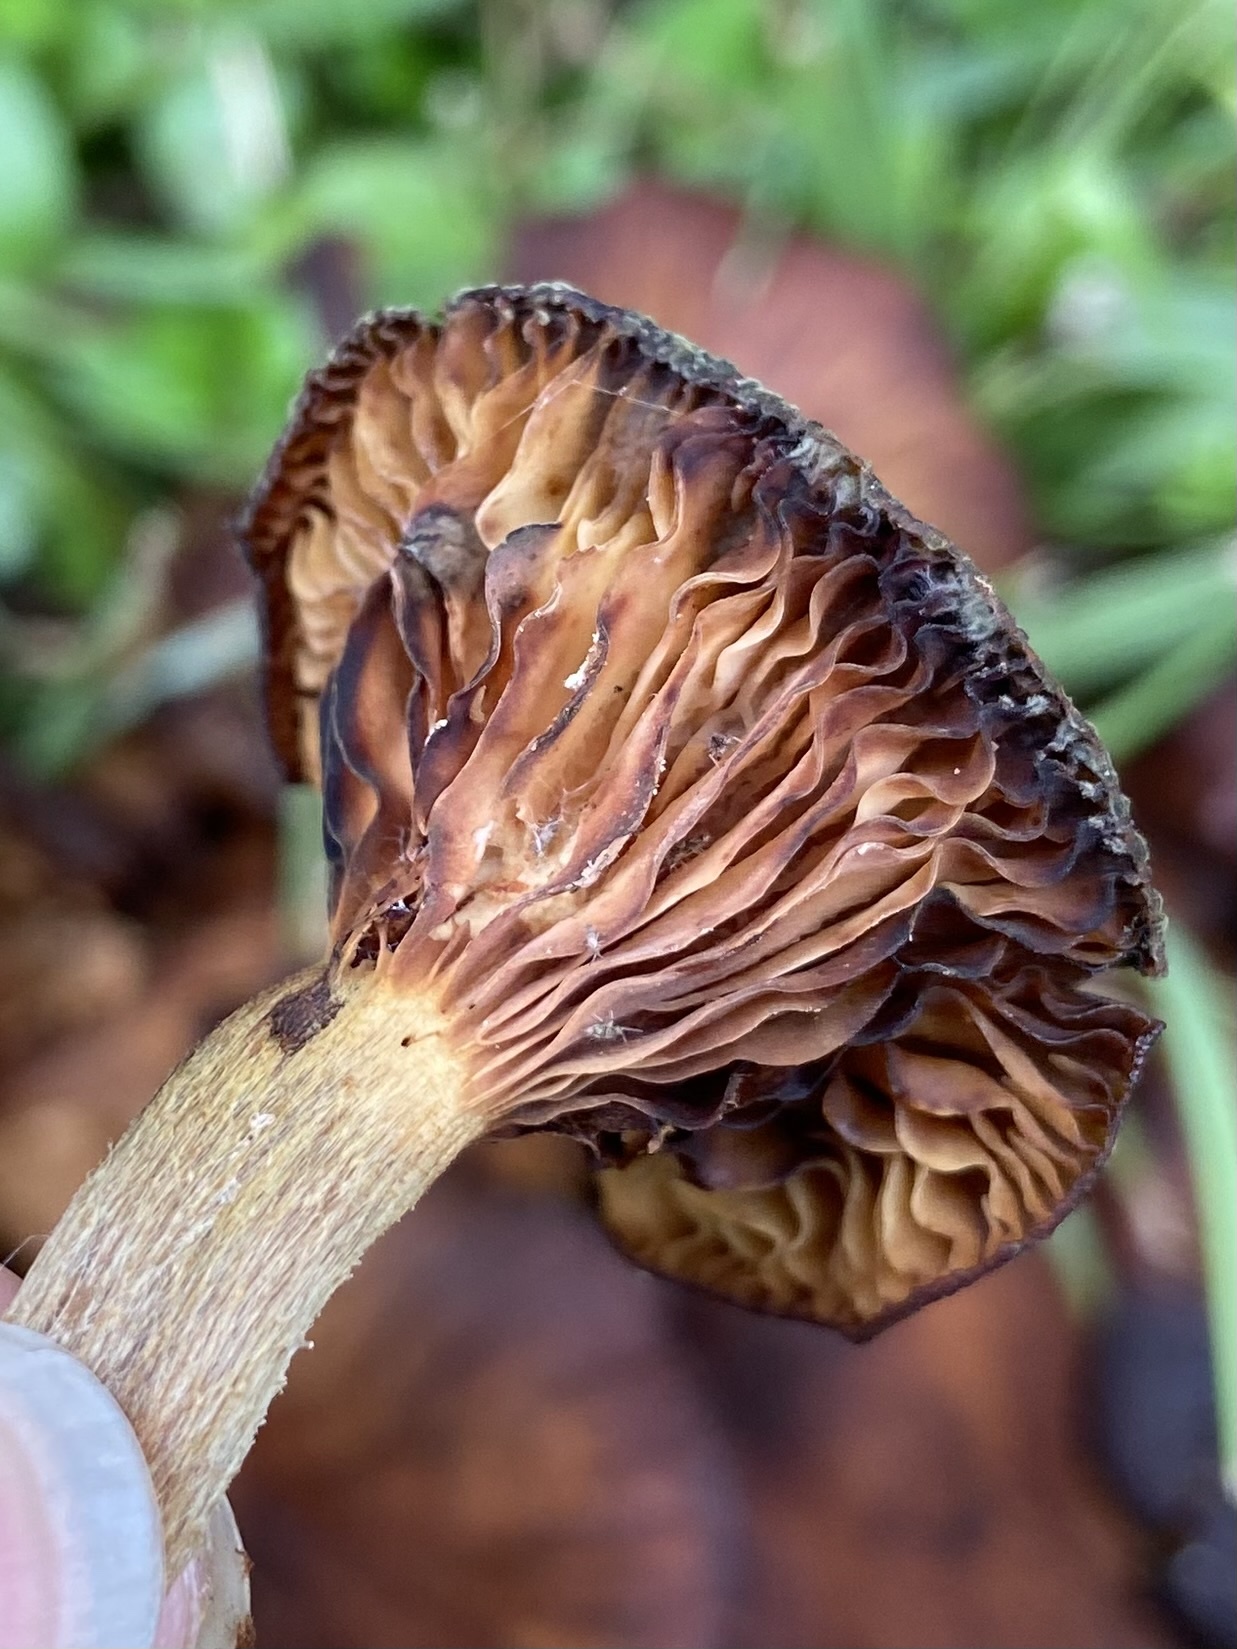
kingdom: Fungi
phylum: Basidiomycota
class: Agaricomycetes
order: Agaricales
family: Physalacriaceae
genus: Desarmillaria
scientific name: Desarmillaria caespitosa
